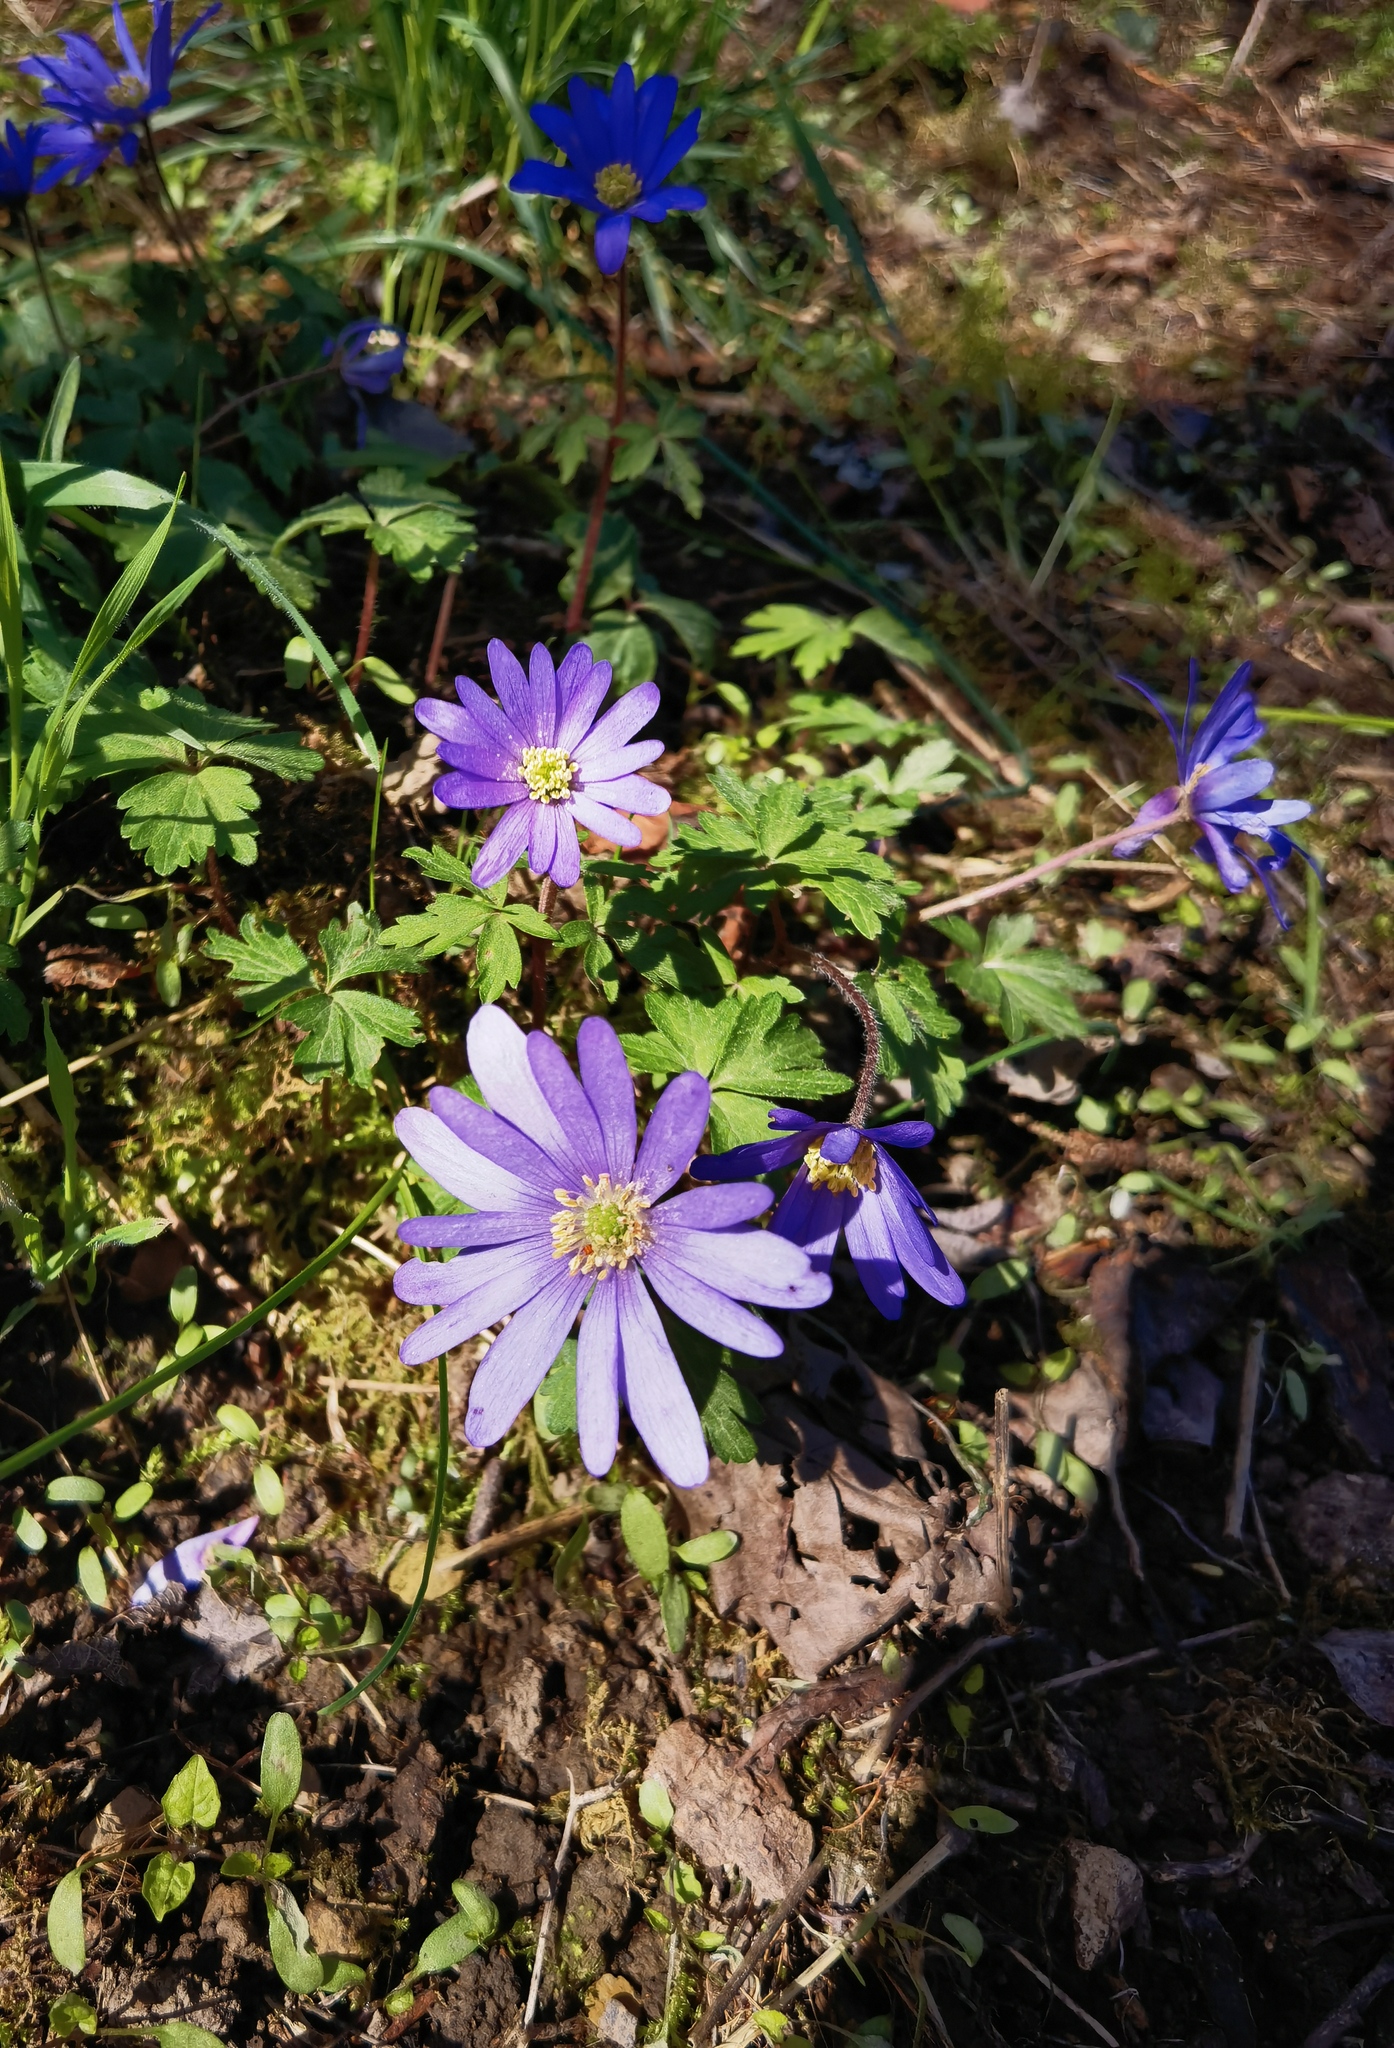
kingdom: Plantae
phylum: Tracheophyta
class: Magnoliopsida
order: Ranunculales
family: Ranunculaceae
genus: Anemone
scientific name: Anemone blanda
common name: Balkan anemone
